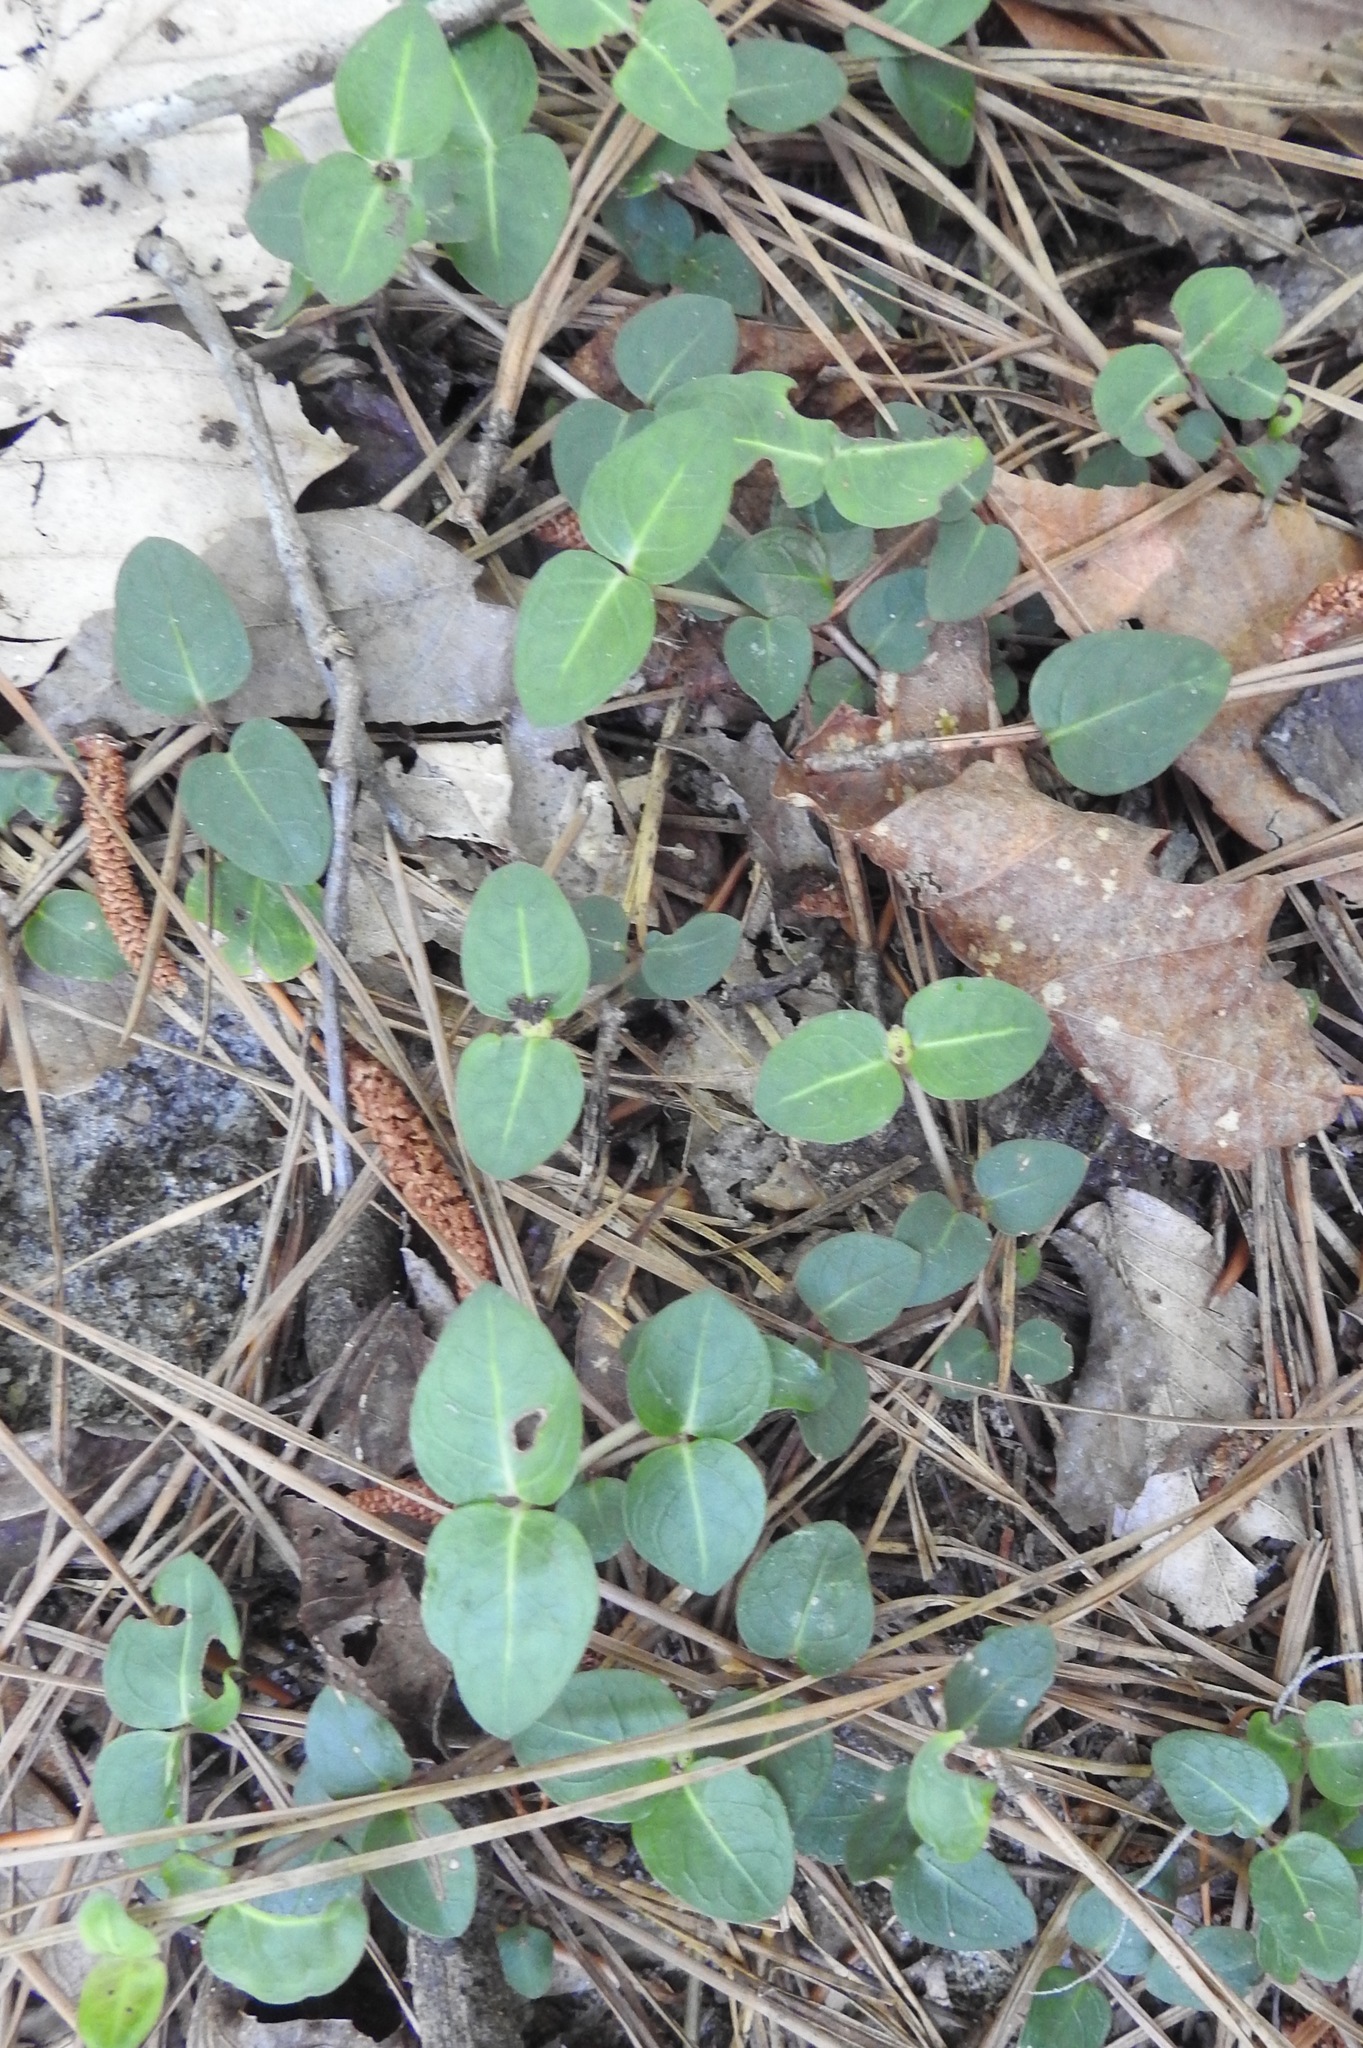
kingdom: Plantae
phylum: Tracheophyta
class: Magnoliopsida
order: Gentianales
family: Rubiaceae
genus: Mitchella
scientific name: Mitchella repens
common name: Partridge-berry
